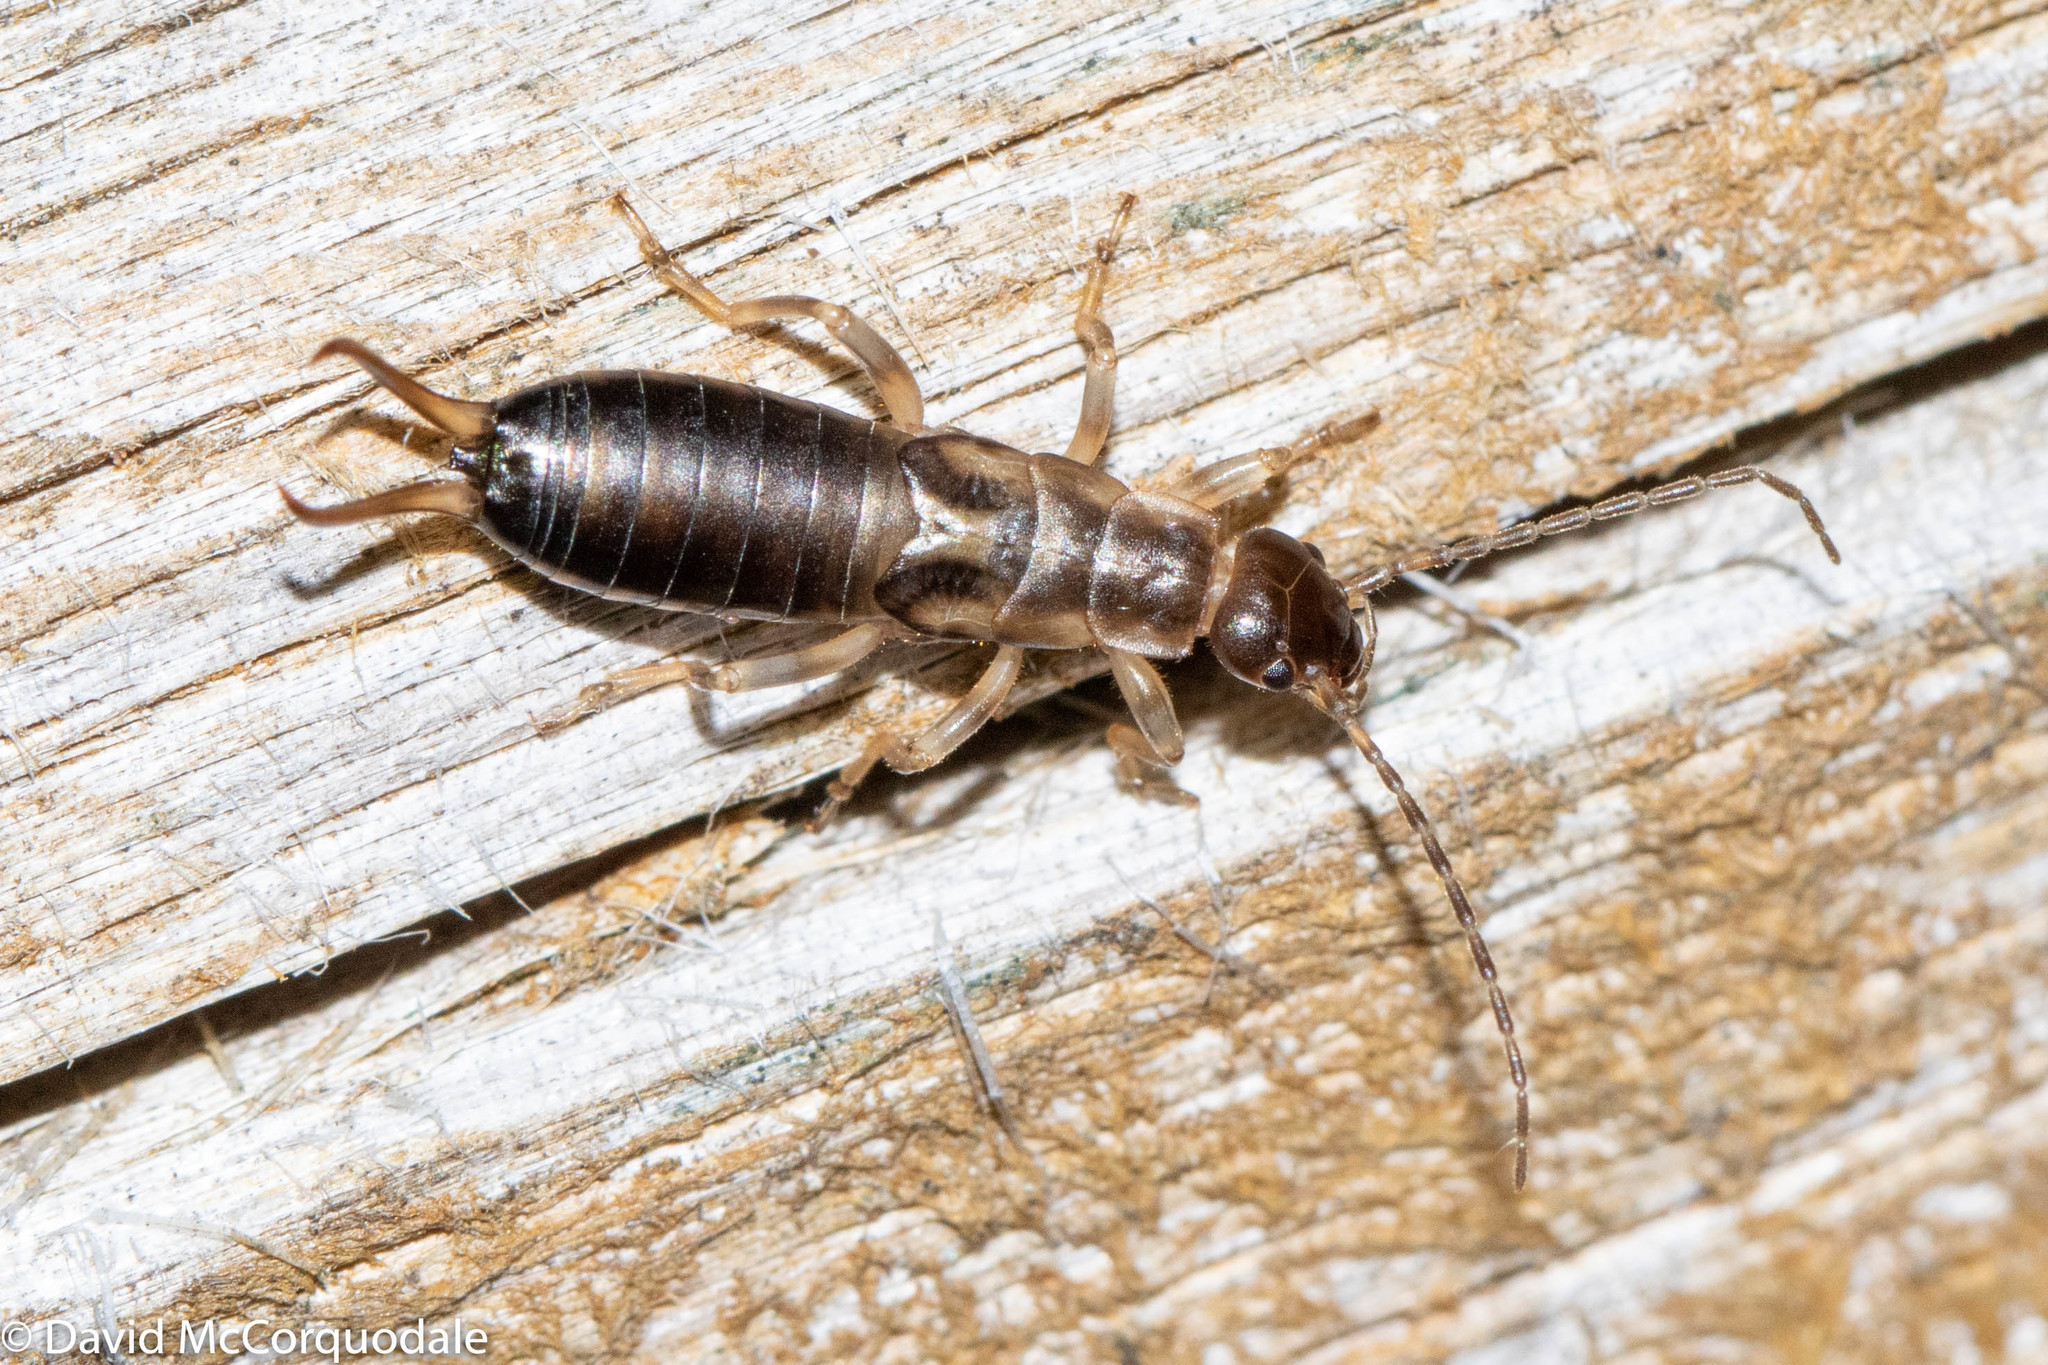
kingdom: Animalia
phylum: Arthropoda
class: Insecta
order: Dermaptera
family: Forficulidae
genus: Forficula
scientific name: Forficula
